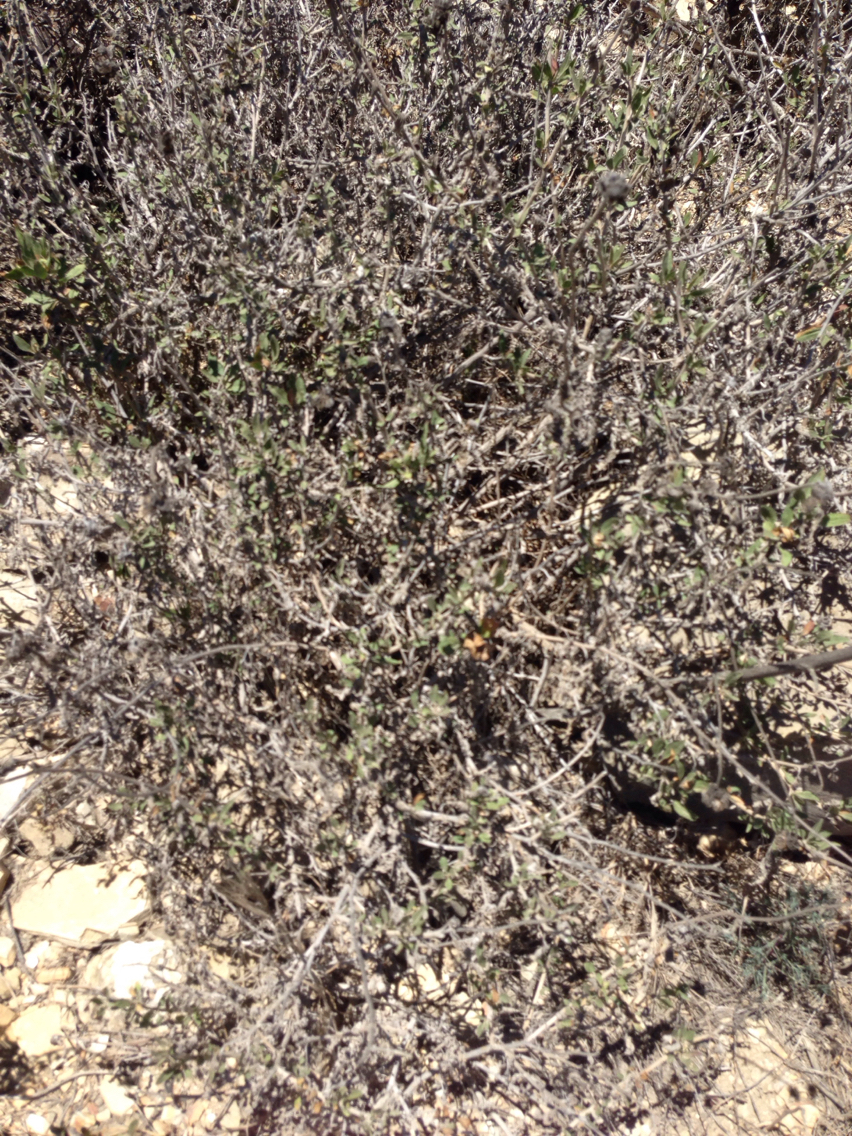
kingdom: Plantae
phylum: Tracheophyta
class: Magnoliopsida
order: Asterales
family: Asteraceae
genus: Encelia
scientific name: Encelia californica
